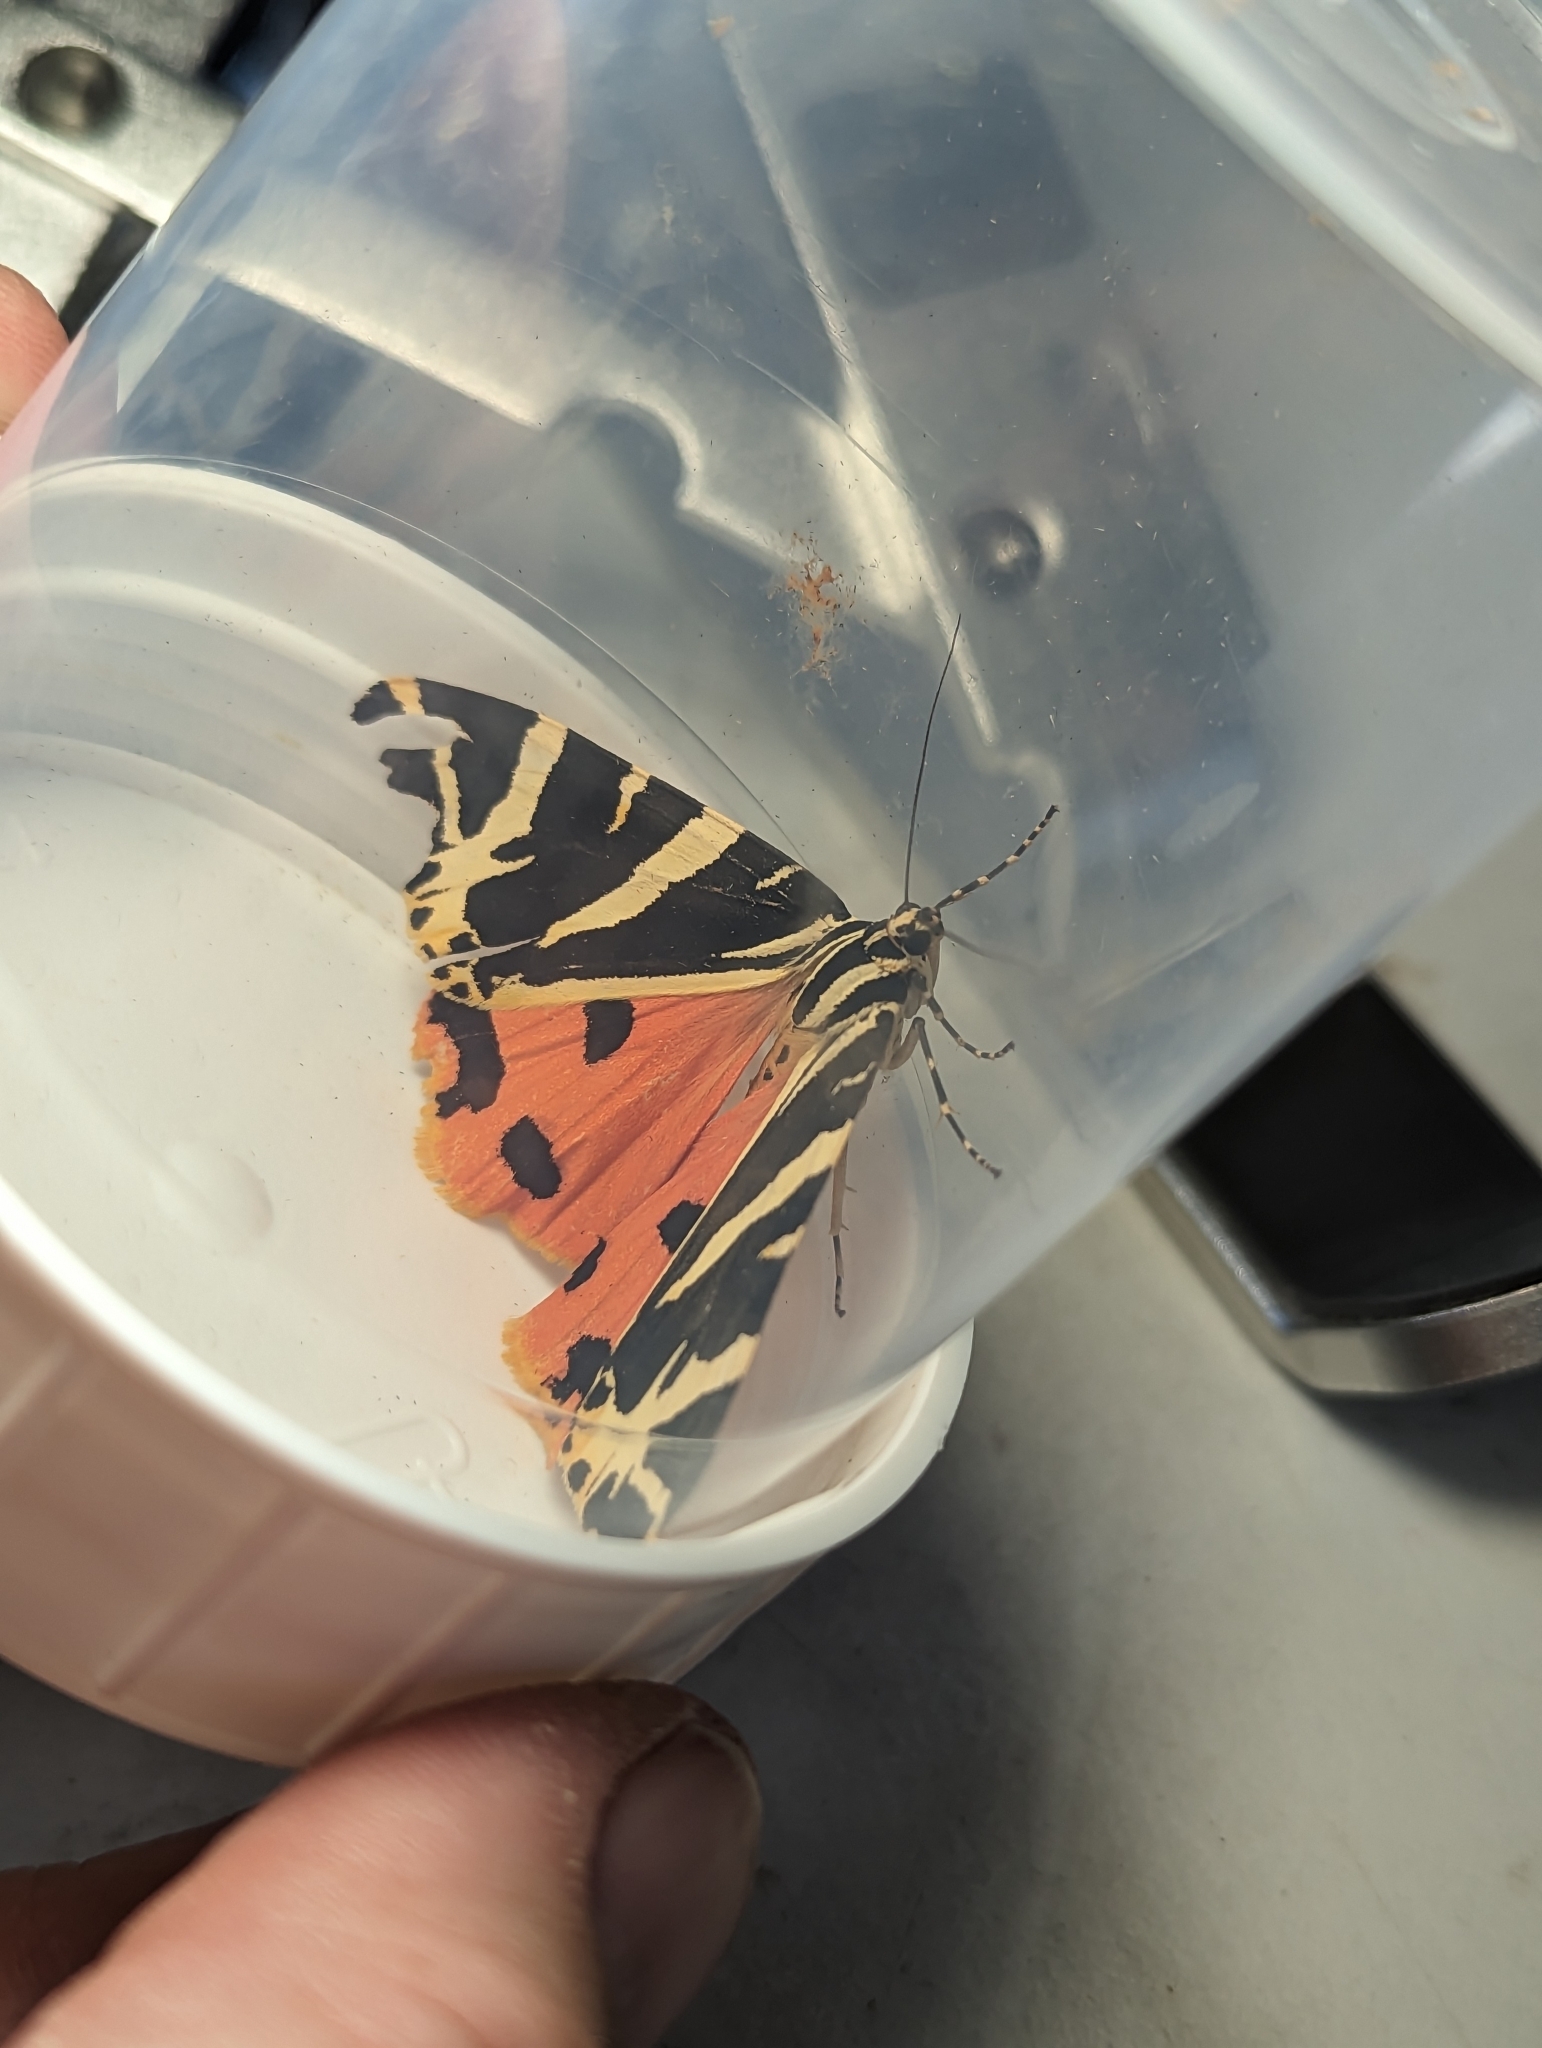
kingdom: Animalia
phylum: Arthropoda
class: Insecta
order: Lepidoptera
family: Erebidae
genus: Euplagia
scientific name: Euplagia quadripunctaria
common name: Jersey tiger
